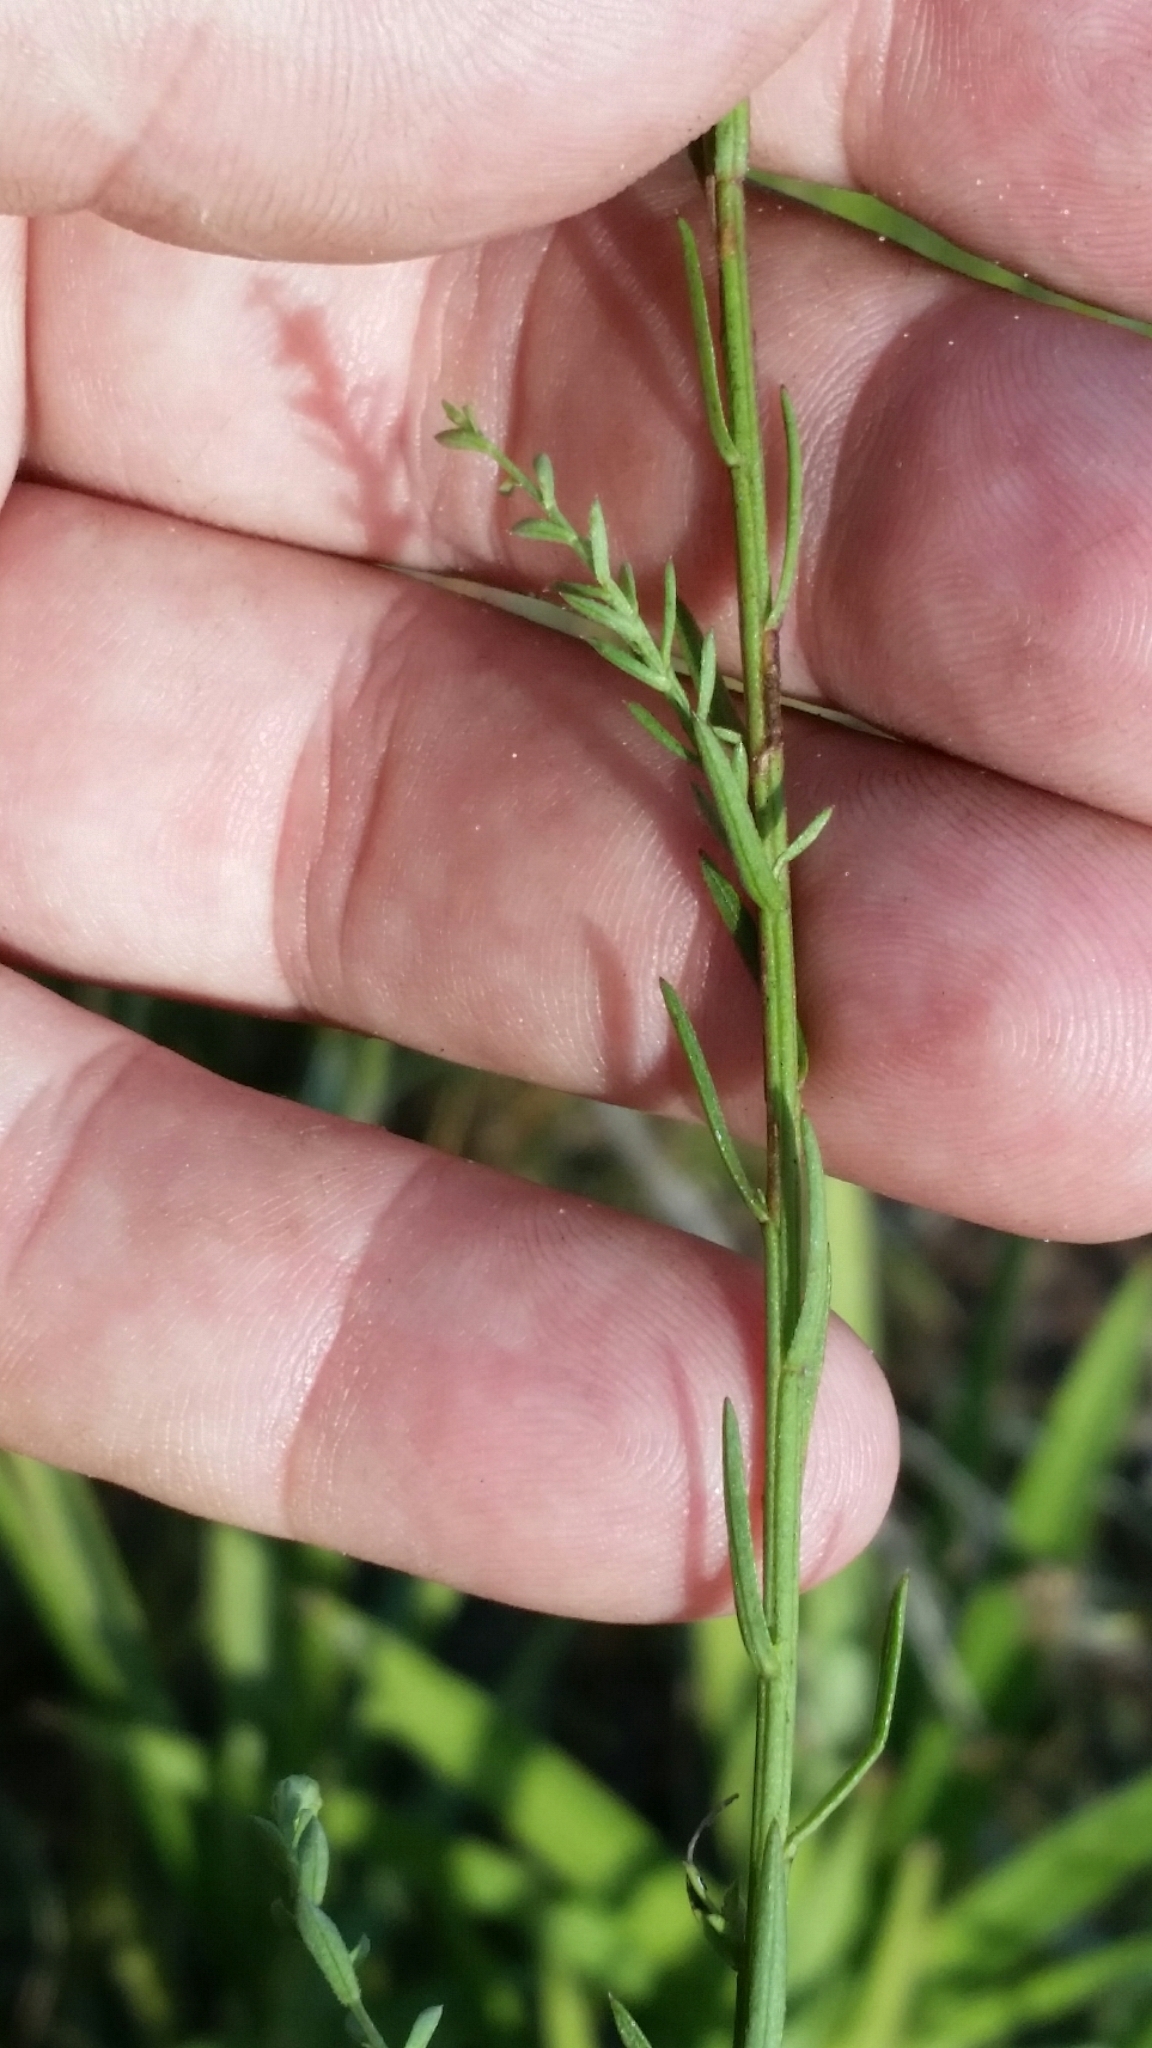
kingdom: Plantae
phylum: Tracheophyta
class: Magnoliopsida
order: Asterales
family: Asteraceae
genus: Symphyotrichum
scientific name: Symphyotrichum dumosum
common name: Bushy aster
